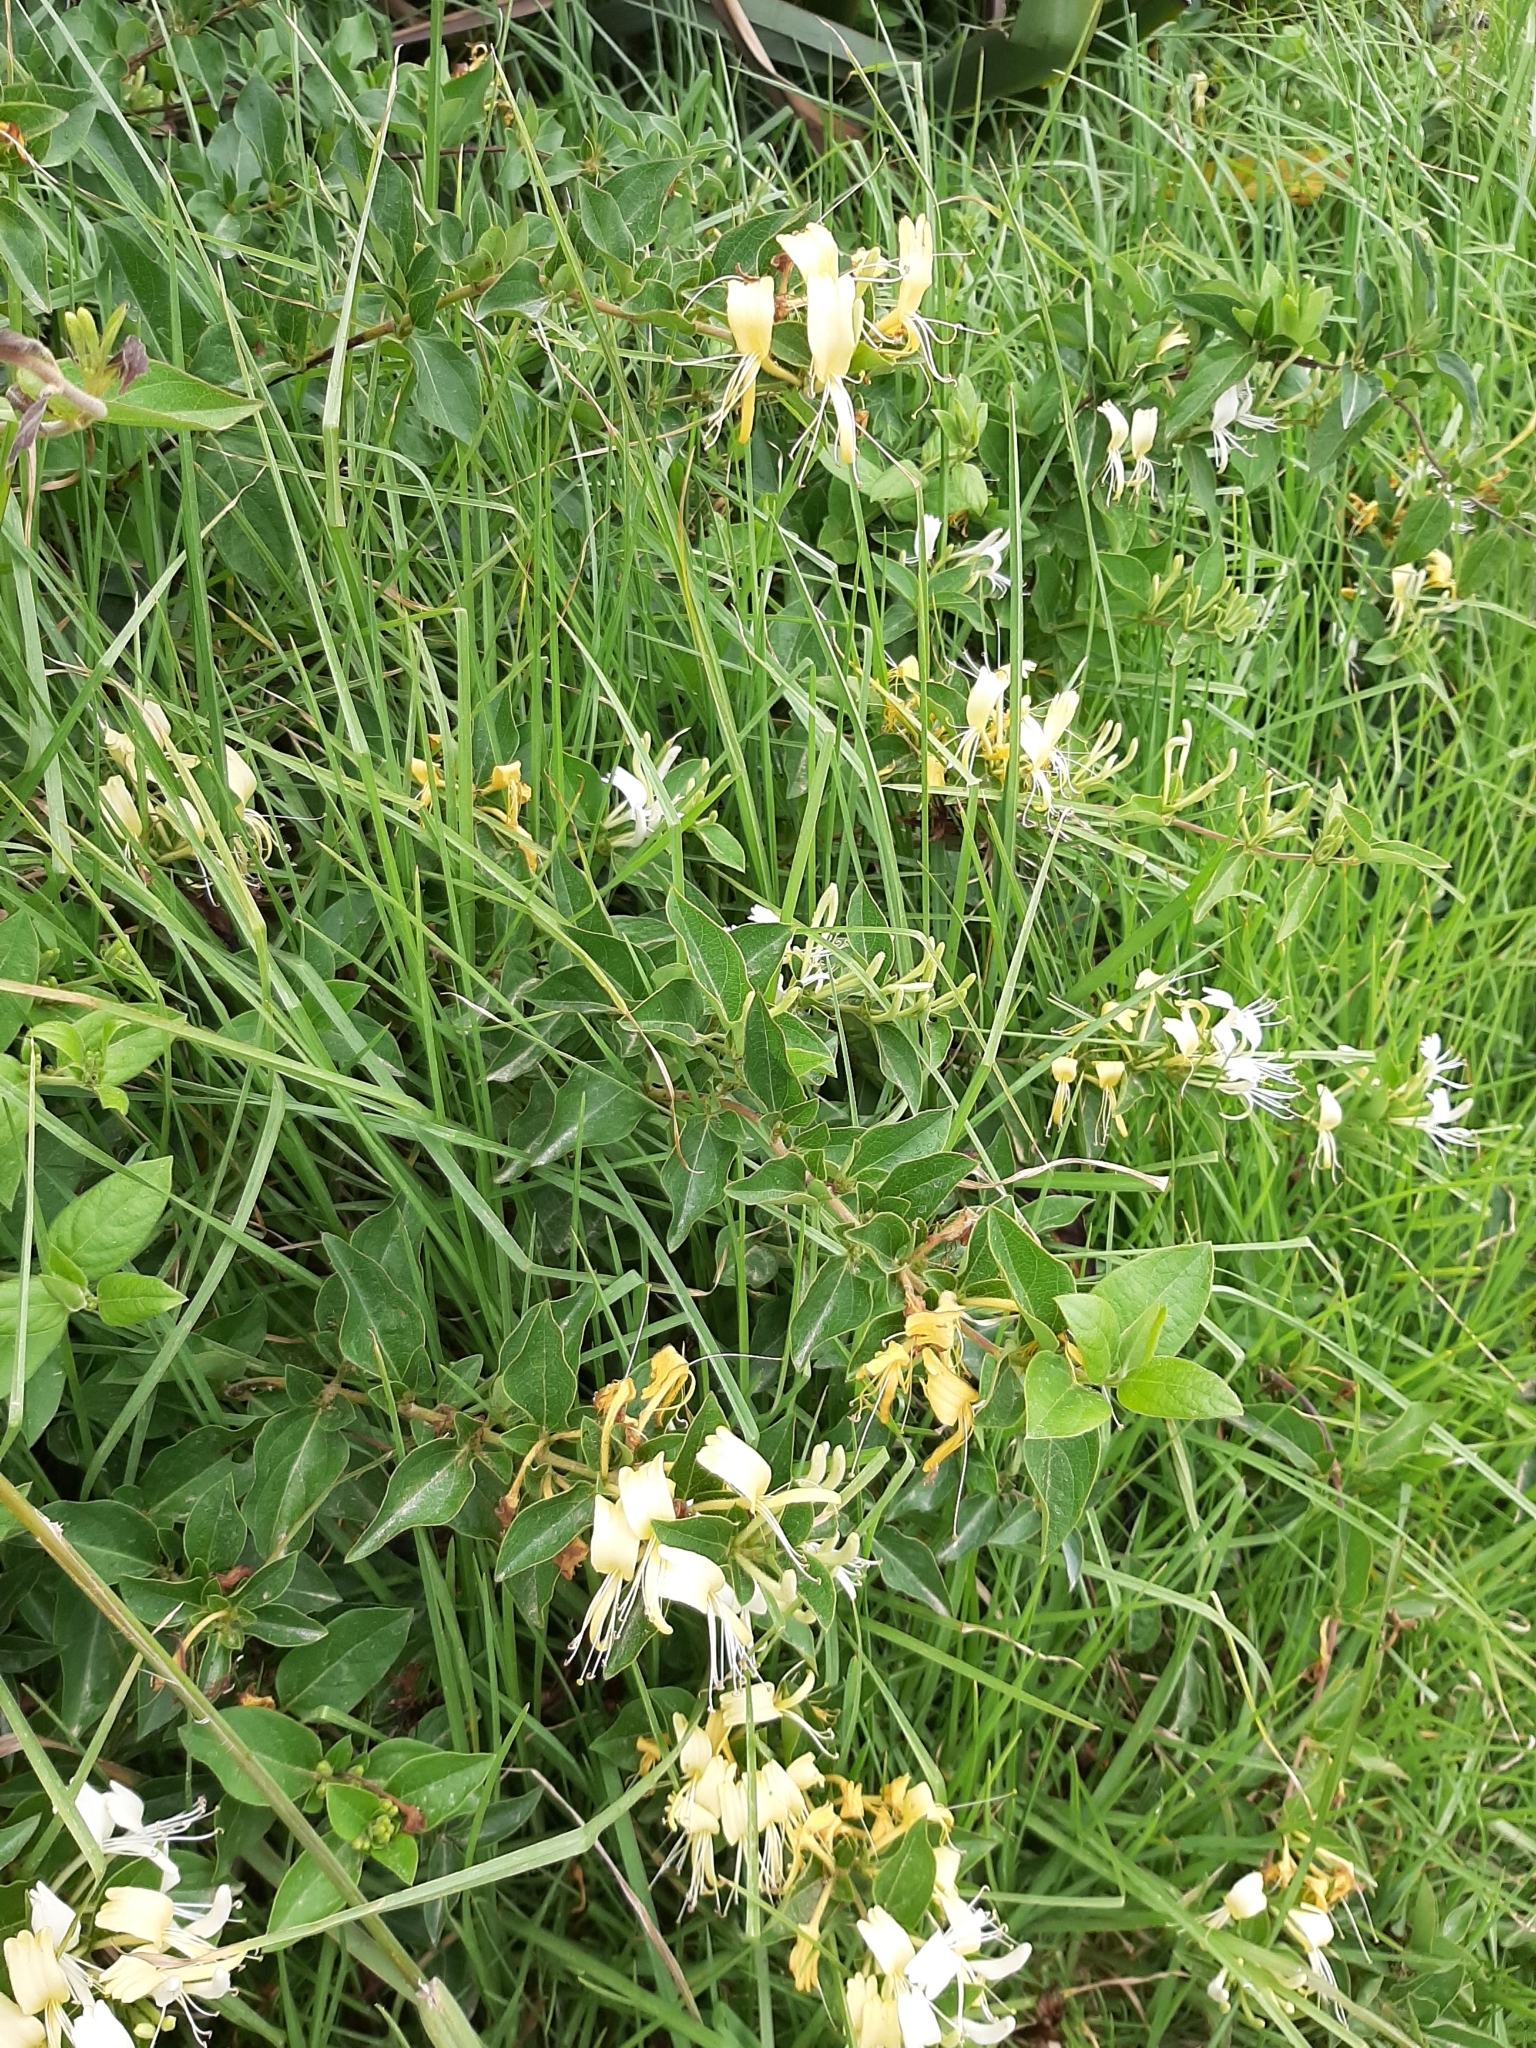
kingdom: Plantae
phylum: Tracheophyta
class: Magnoliopsida
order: Dipsacales
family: Caprifoliaceae
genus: Lonicera
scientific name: Lonicera japonica
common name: Japanese honeysuckle
